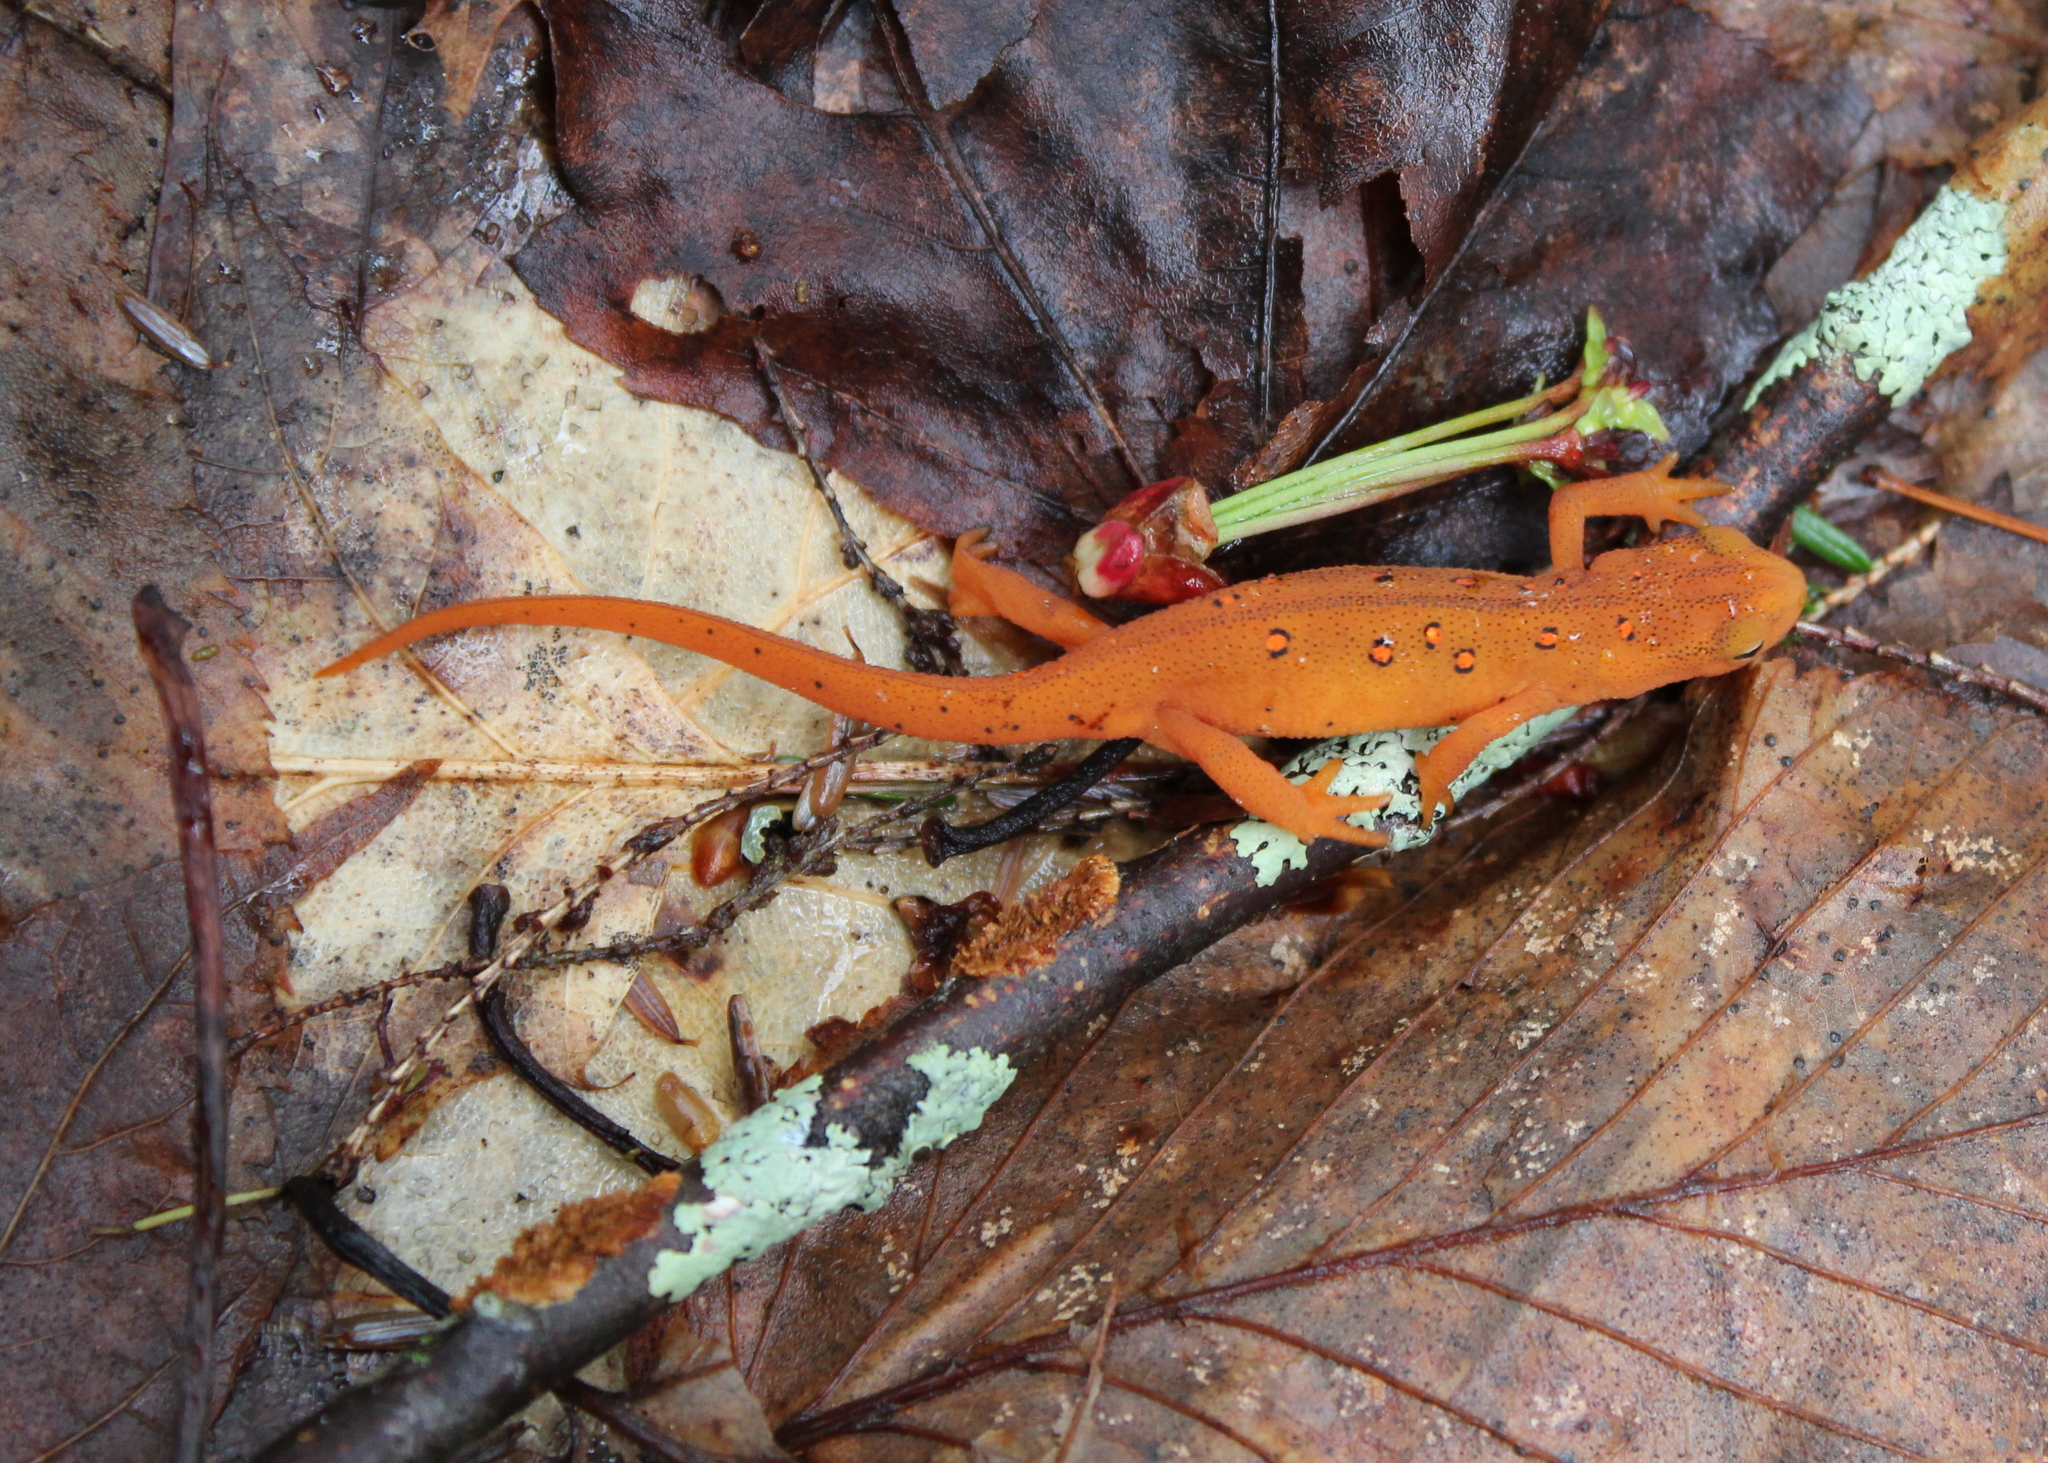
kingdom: Animalia
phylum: Chordata
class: Amphibia
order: Caudata
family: Salamandridae
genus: Notophthalmus
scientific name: Notophthalmus viridescens
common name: Eastern newt
